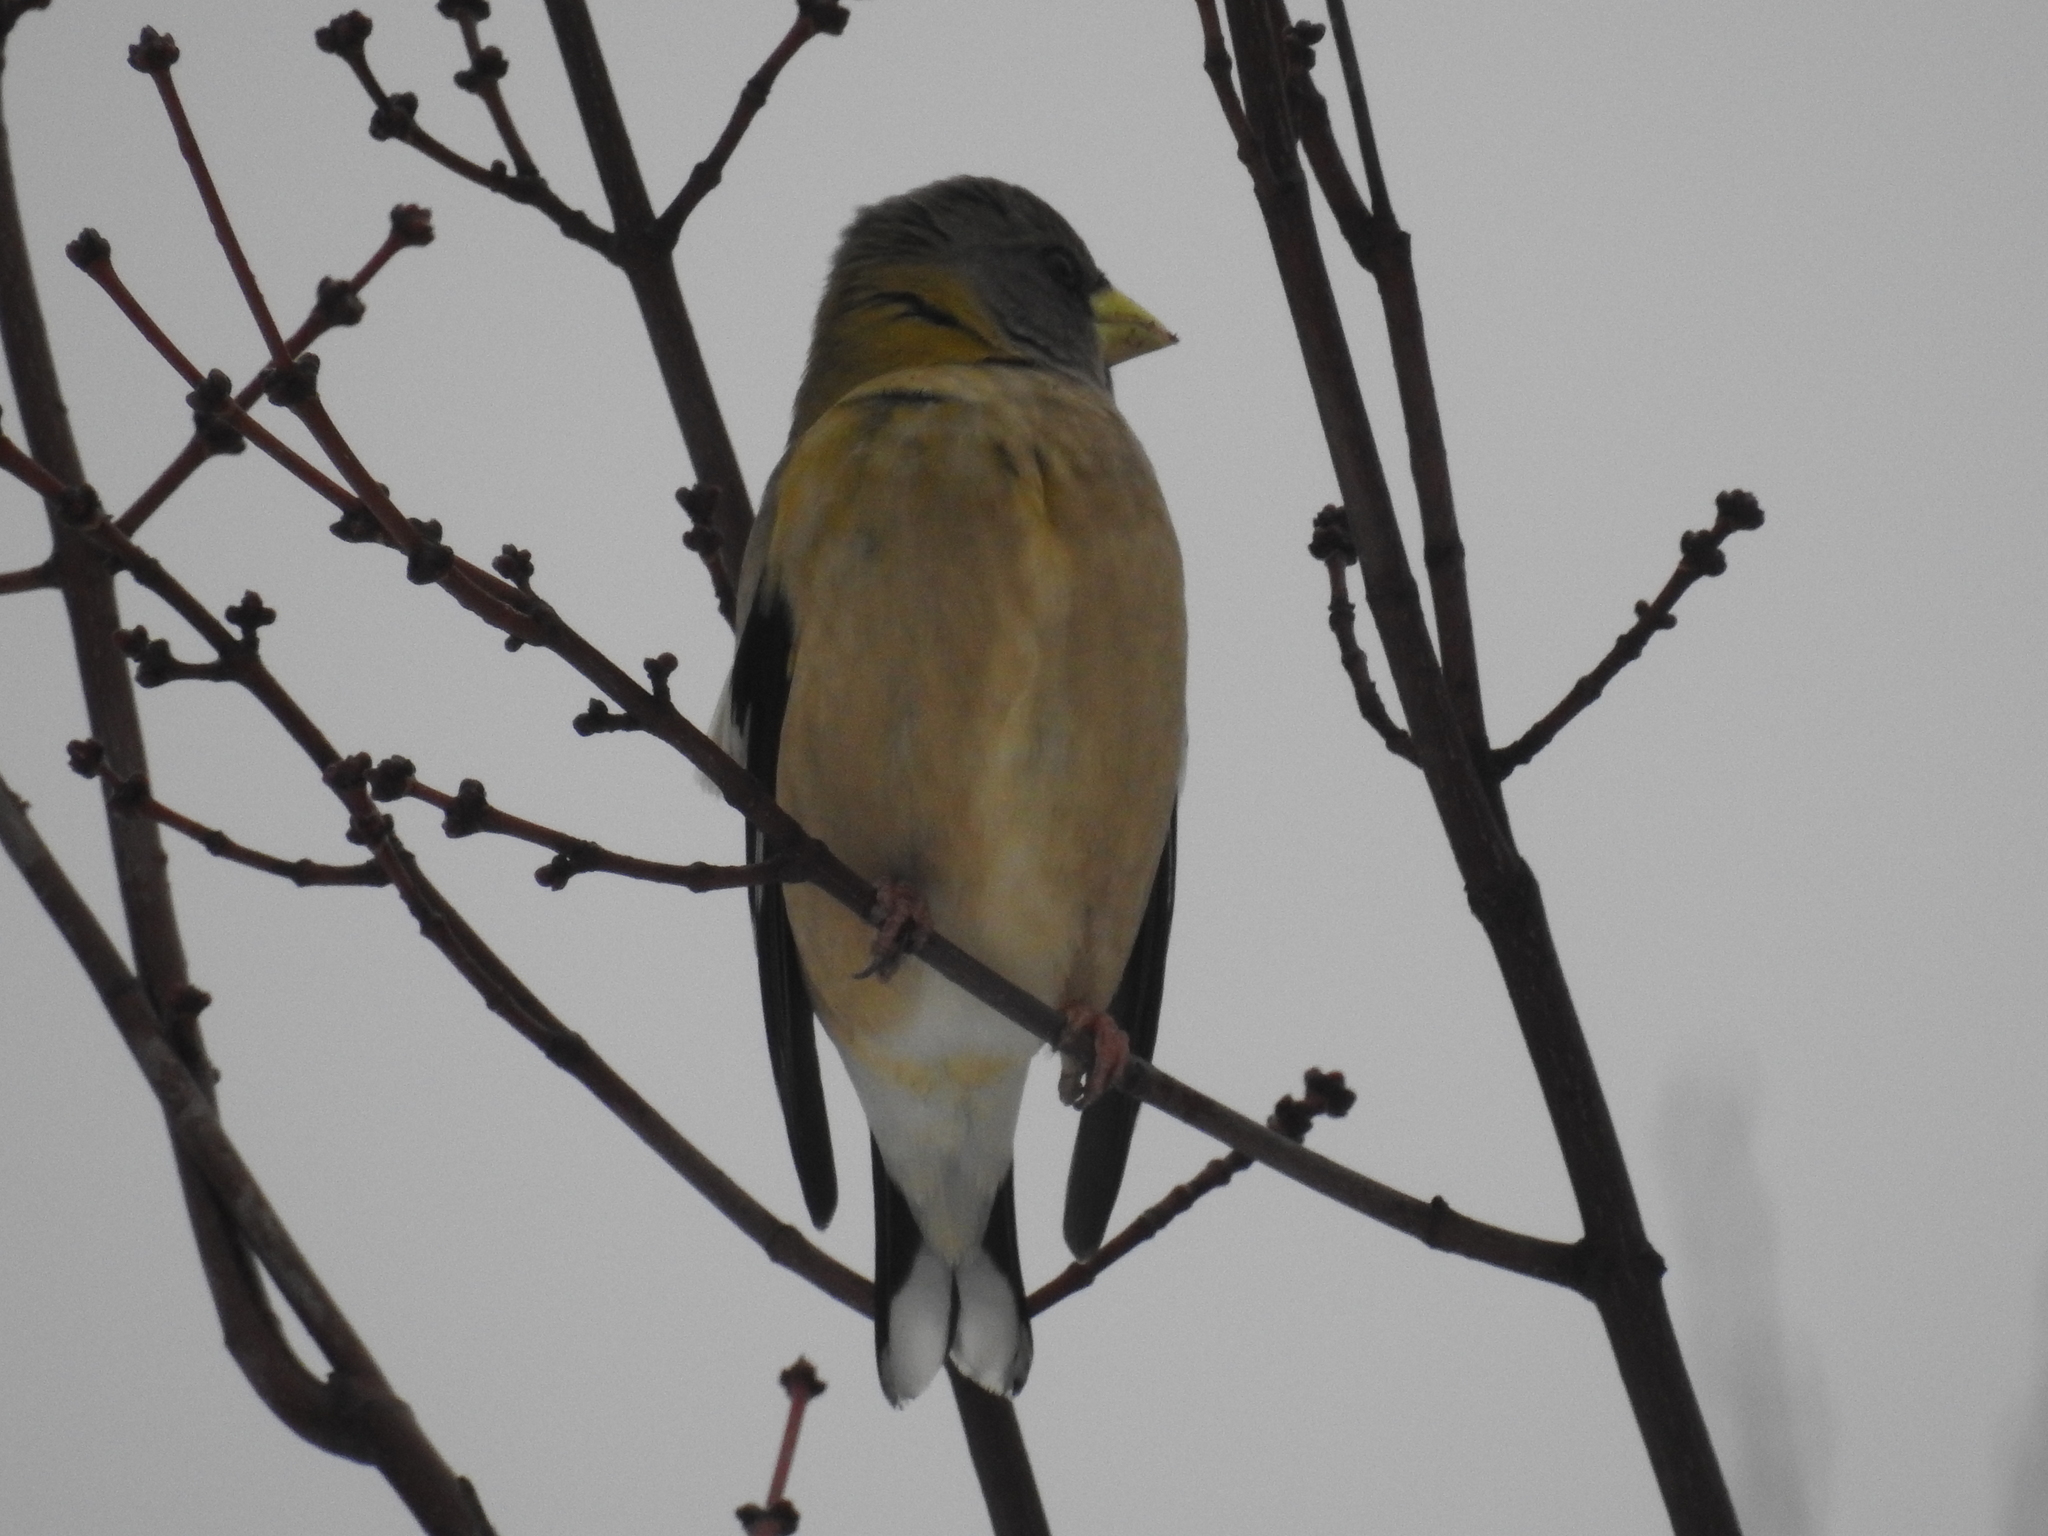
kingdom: Animalia
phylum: Chordata
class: Aves
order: Passeriformes
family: Fringillidae
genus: Hesperiphona
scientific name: Hesperiphona vespertina
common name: Evening grosbeak
